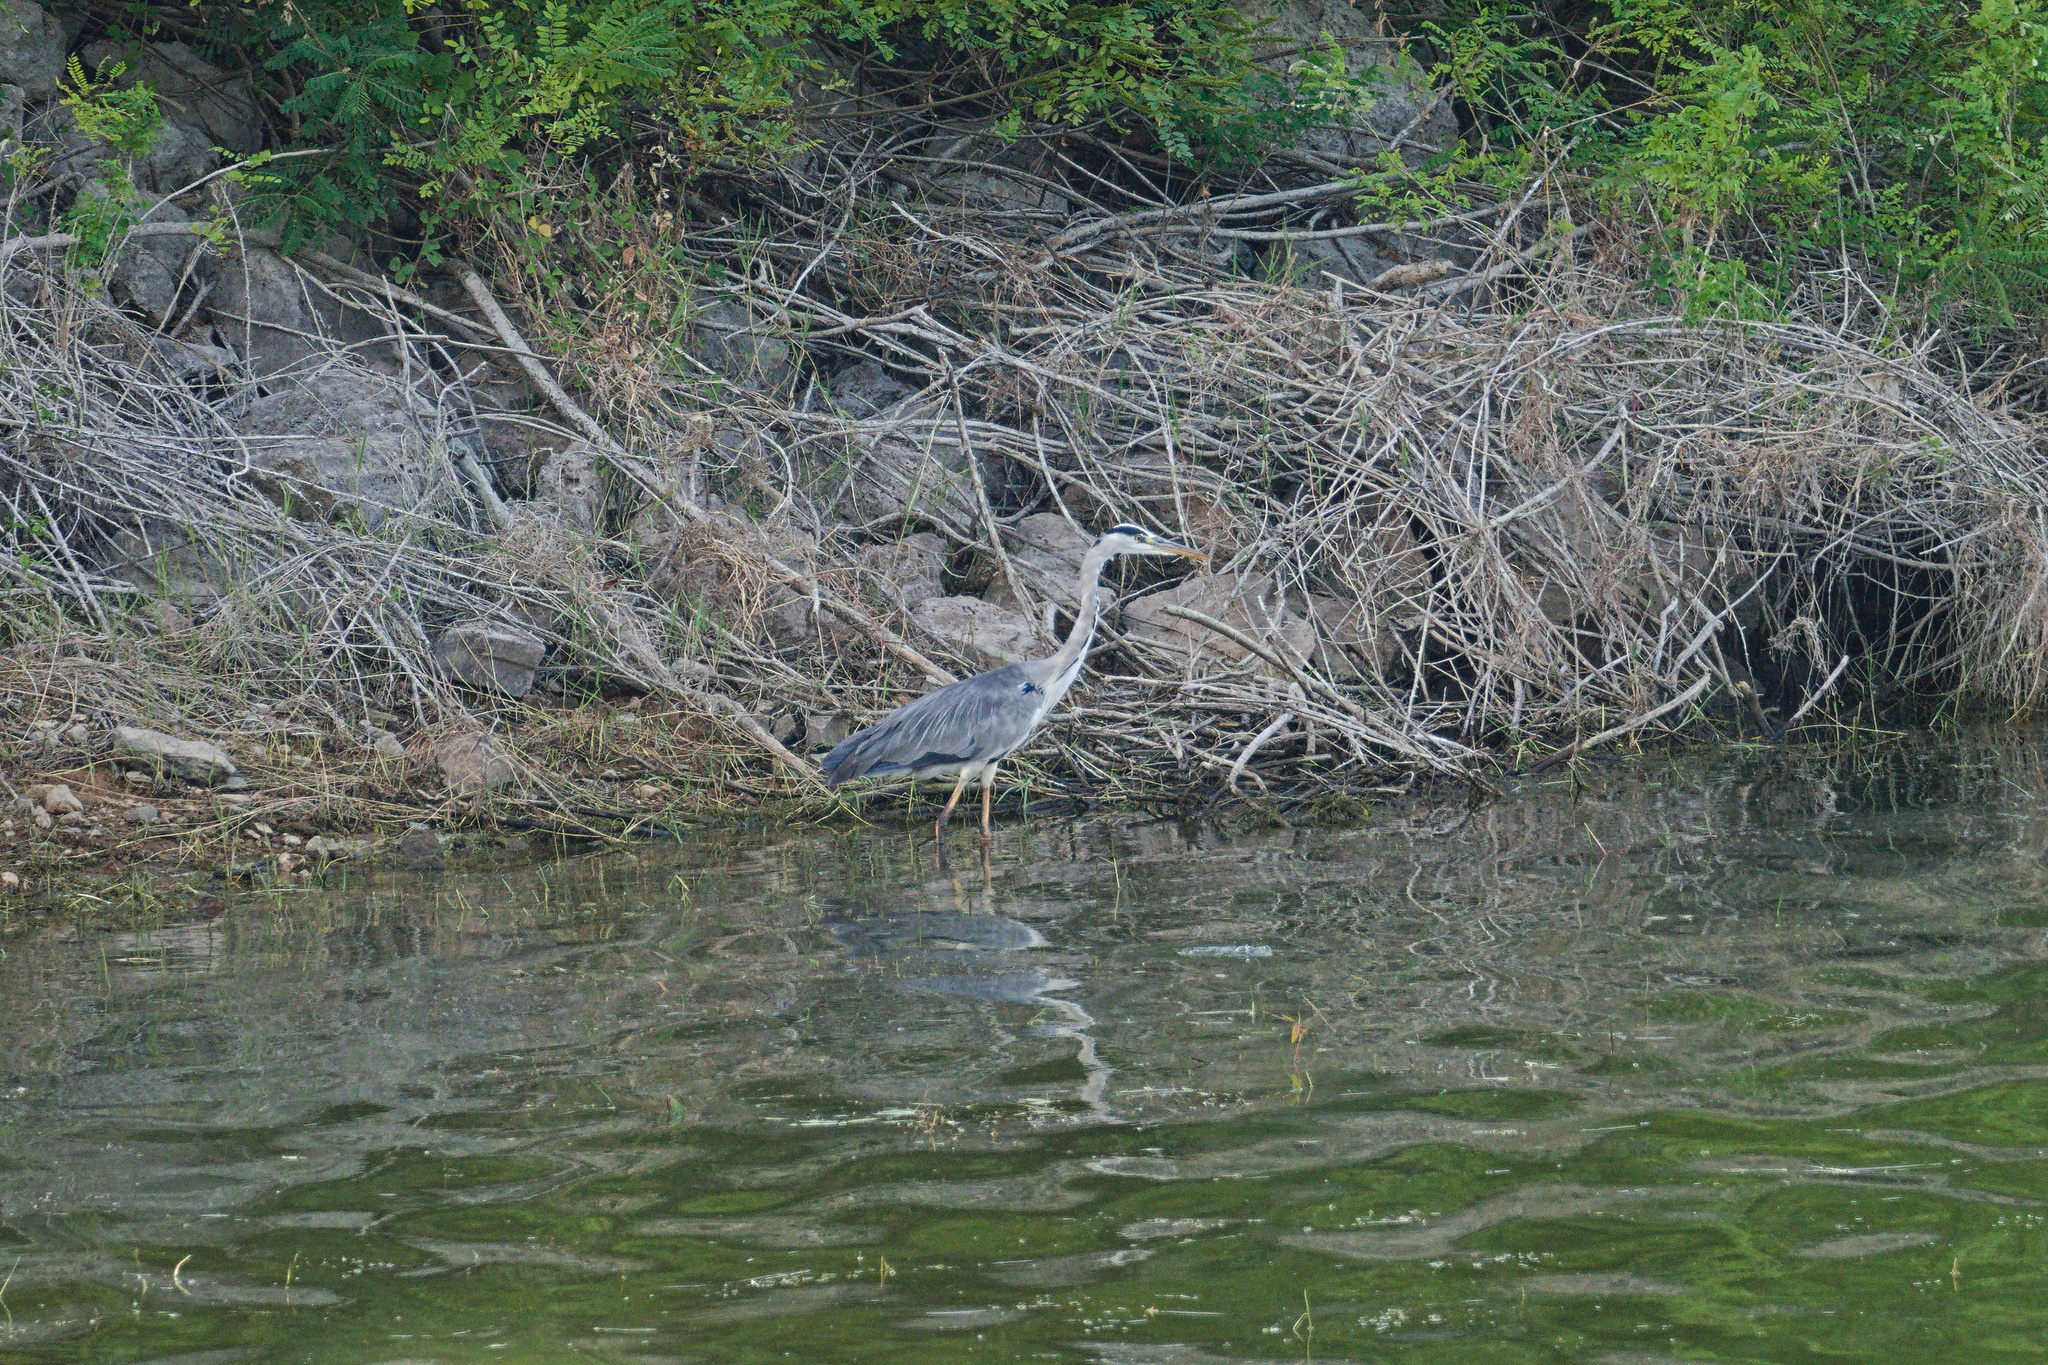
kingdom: Animalia
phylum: Chordata
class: Aves
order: Pelecaniformes
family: Ardeidae
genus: Ardea
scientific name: Ardea cinerea
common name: Grey heron
